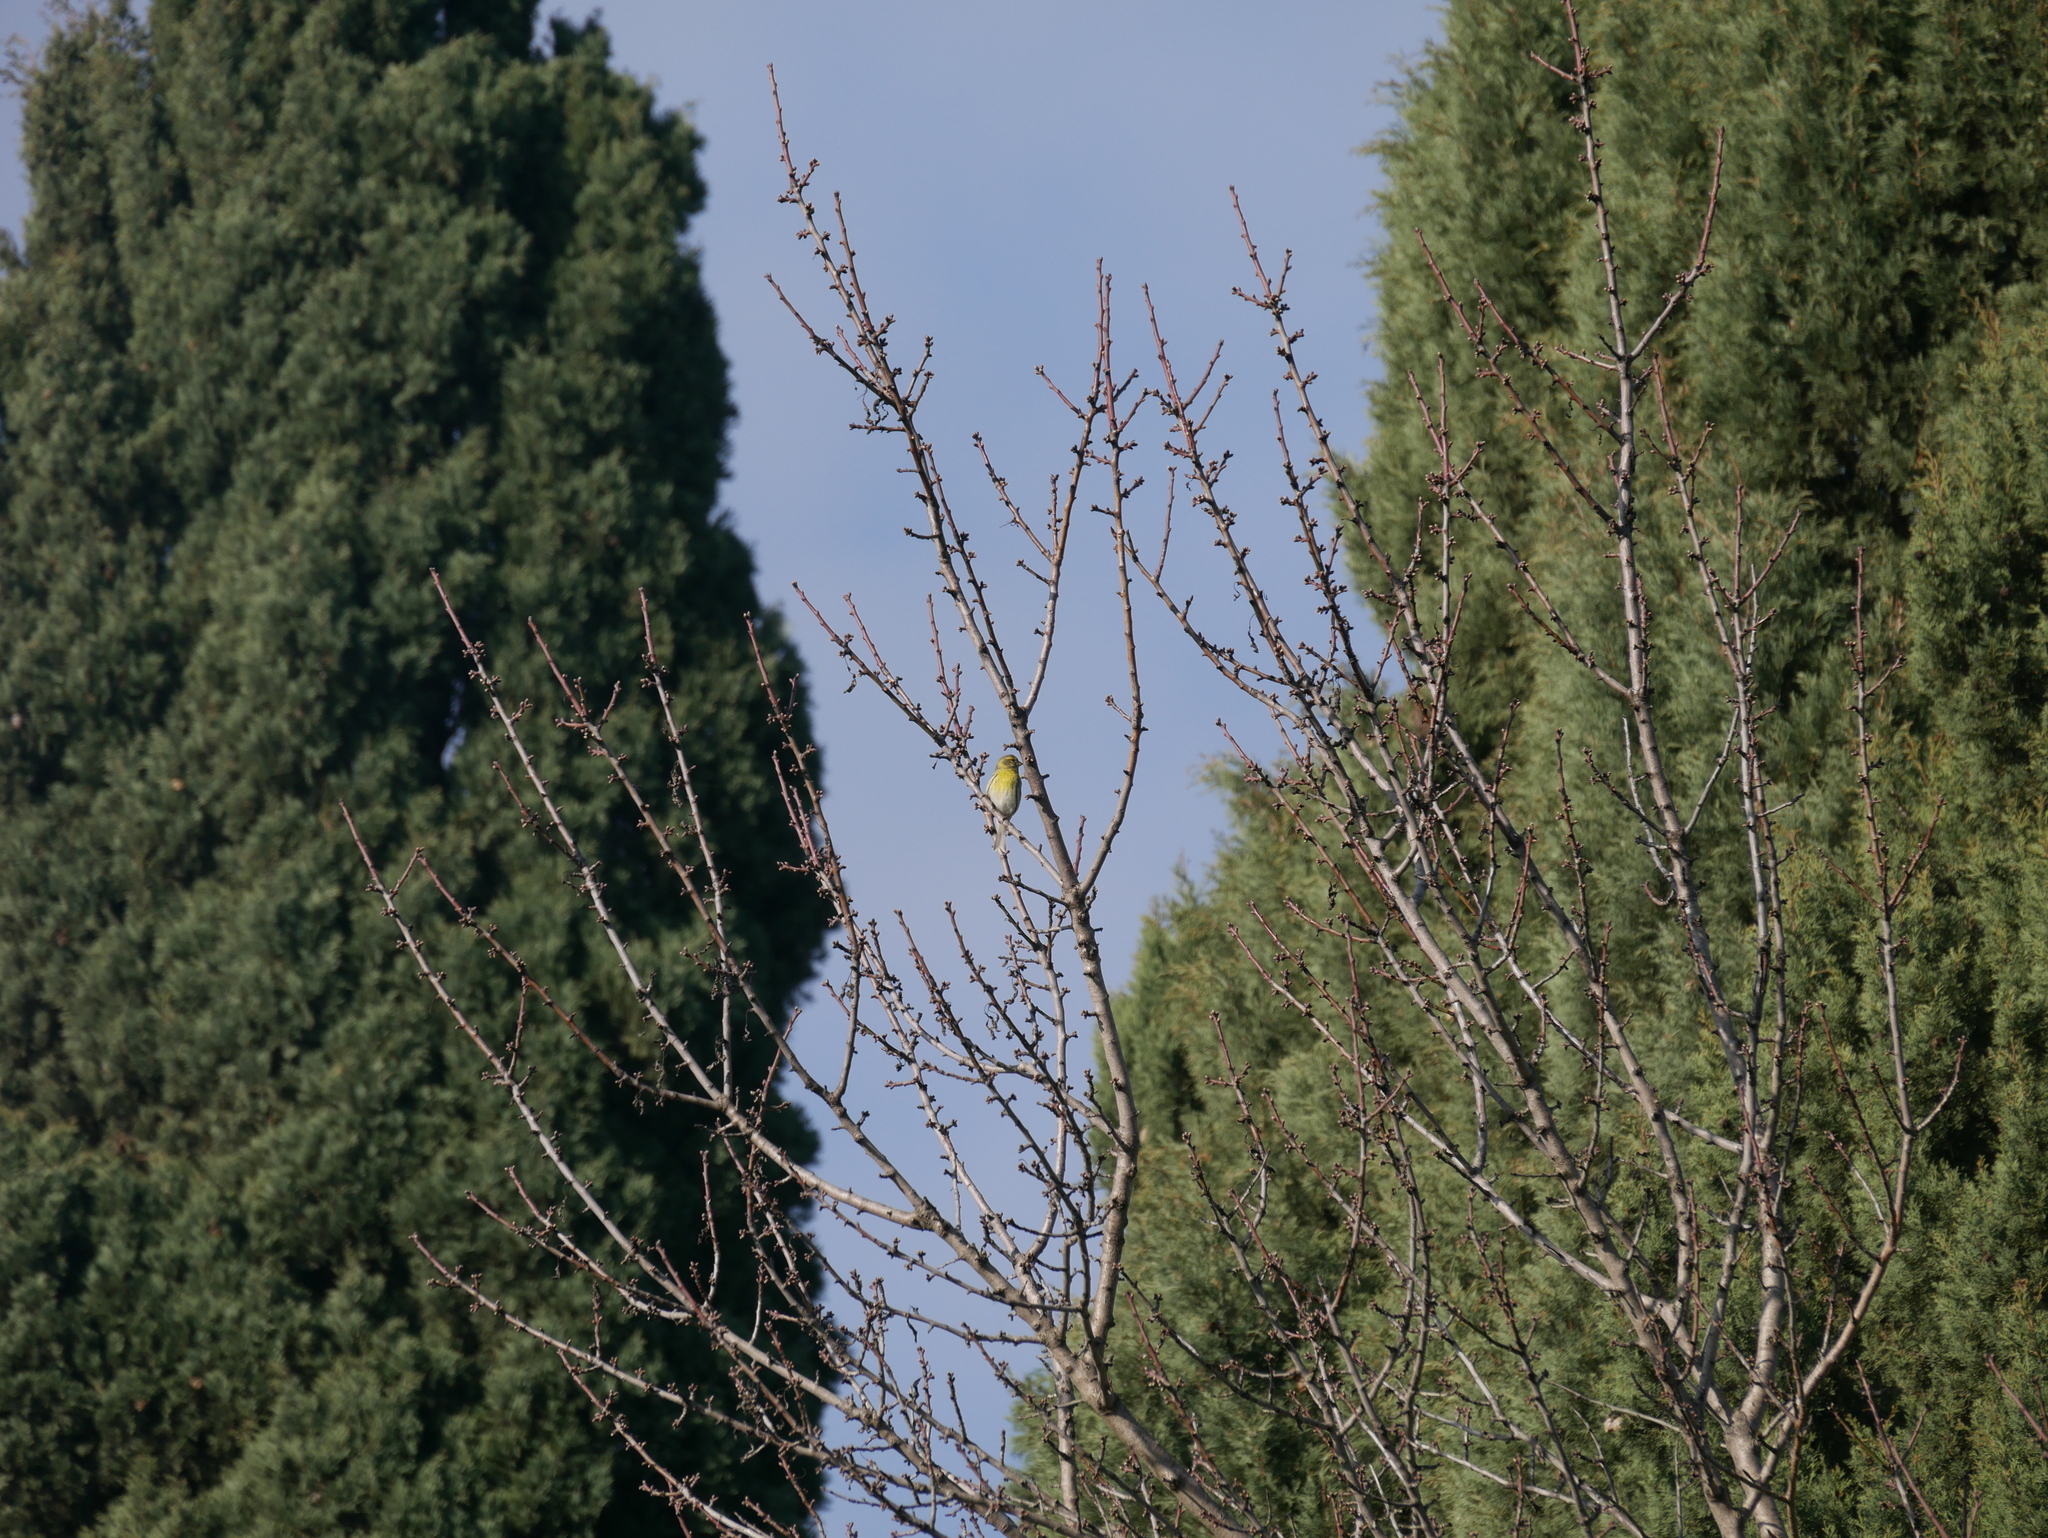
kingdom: Animalia
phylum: Chordata
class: Aves
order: Passeriformes
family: Fringillidae
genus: Serinus
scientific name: Serinus serinus
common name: European serin
